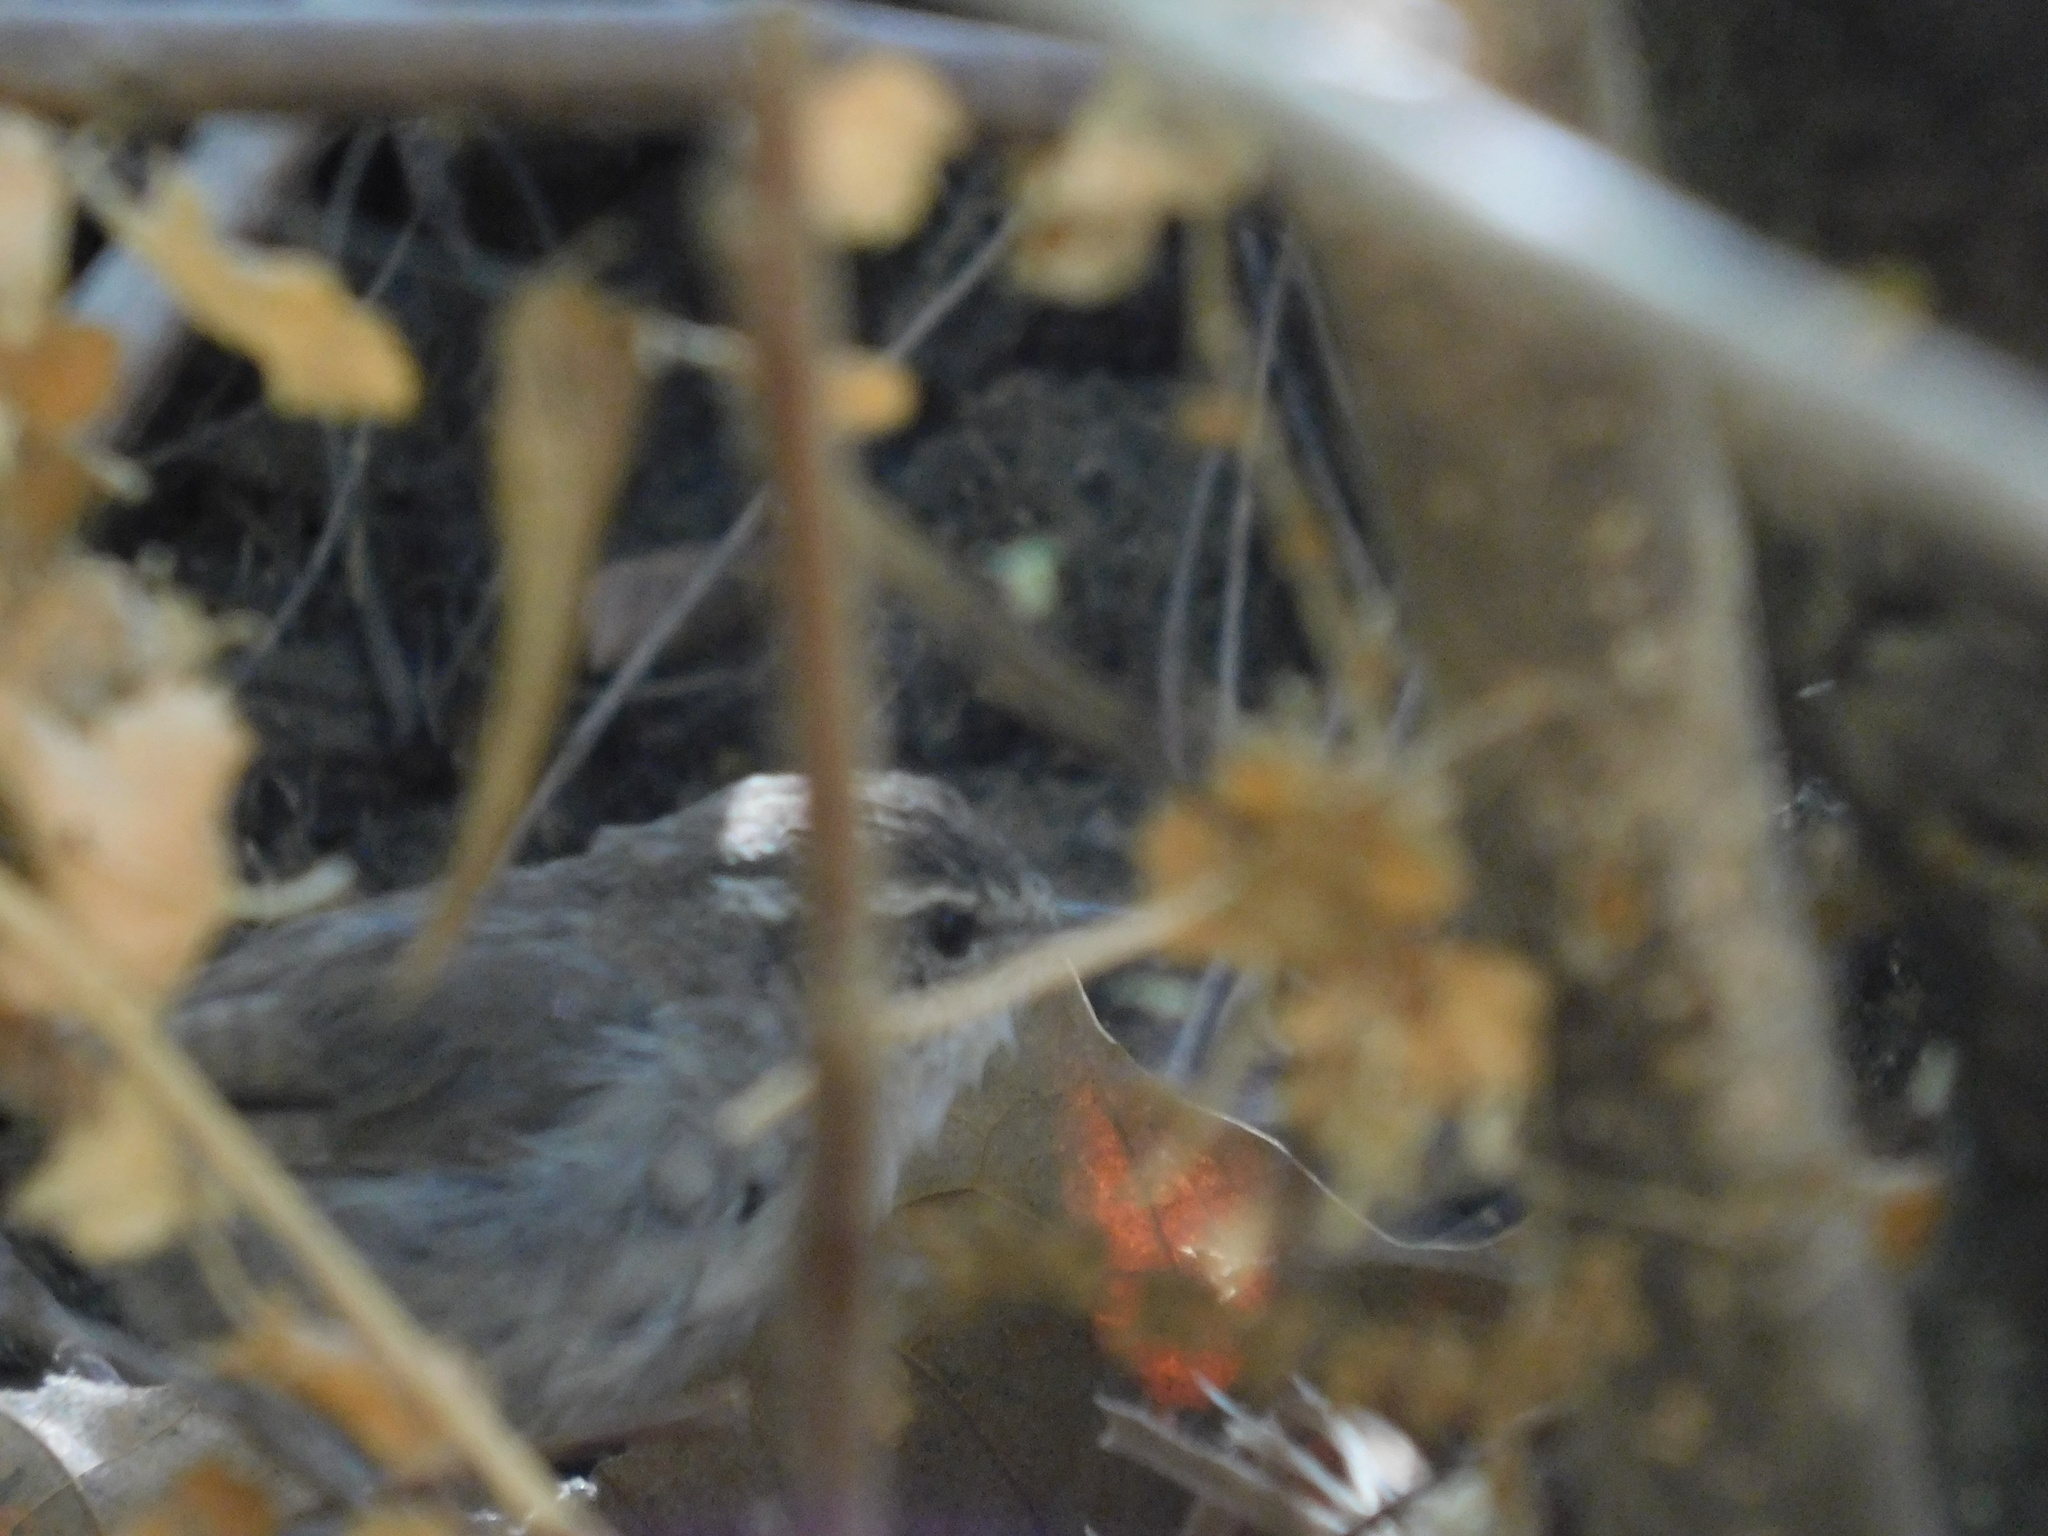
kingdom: Animalia
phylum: Chordata
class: Aves
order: Passeriformes
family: Troglodytidae
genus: Thryomanes
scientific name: Thryomanes bewickii
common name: Bewick's wren
